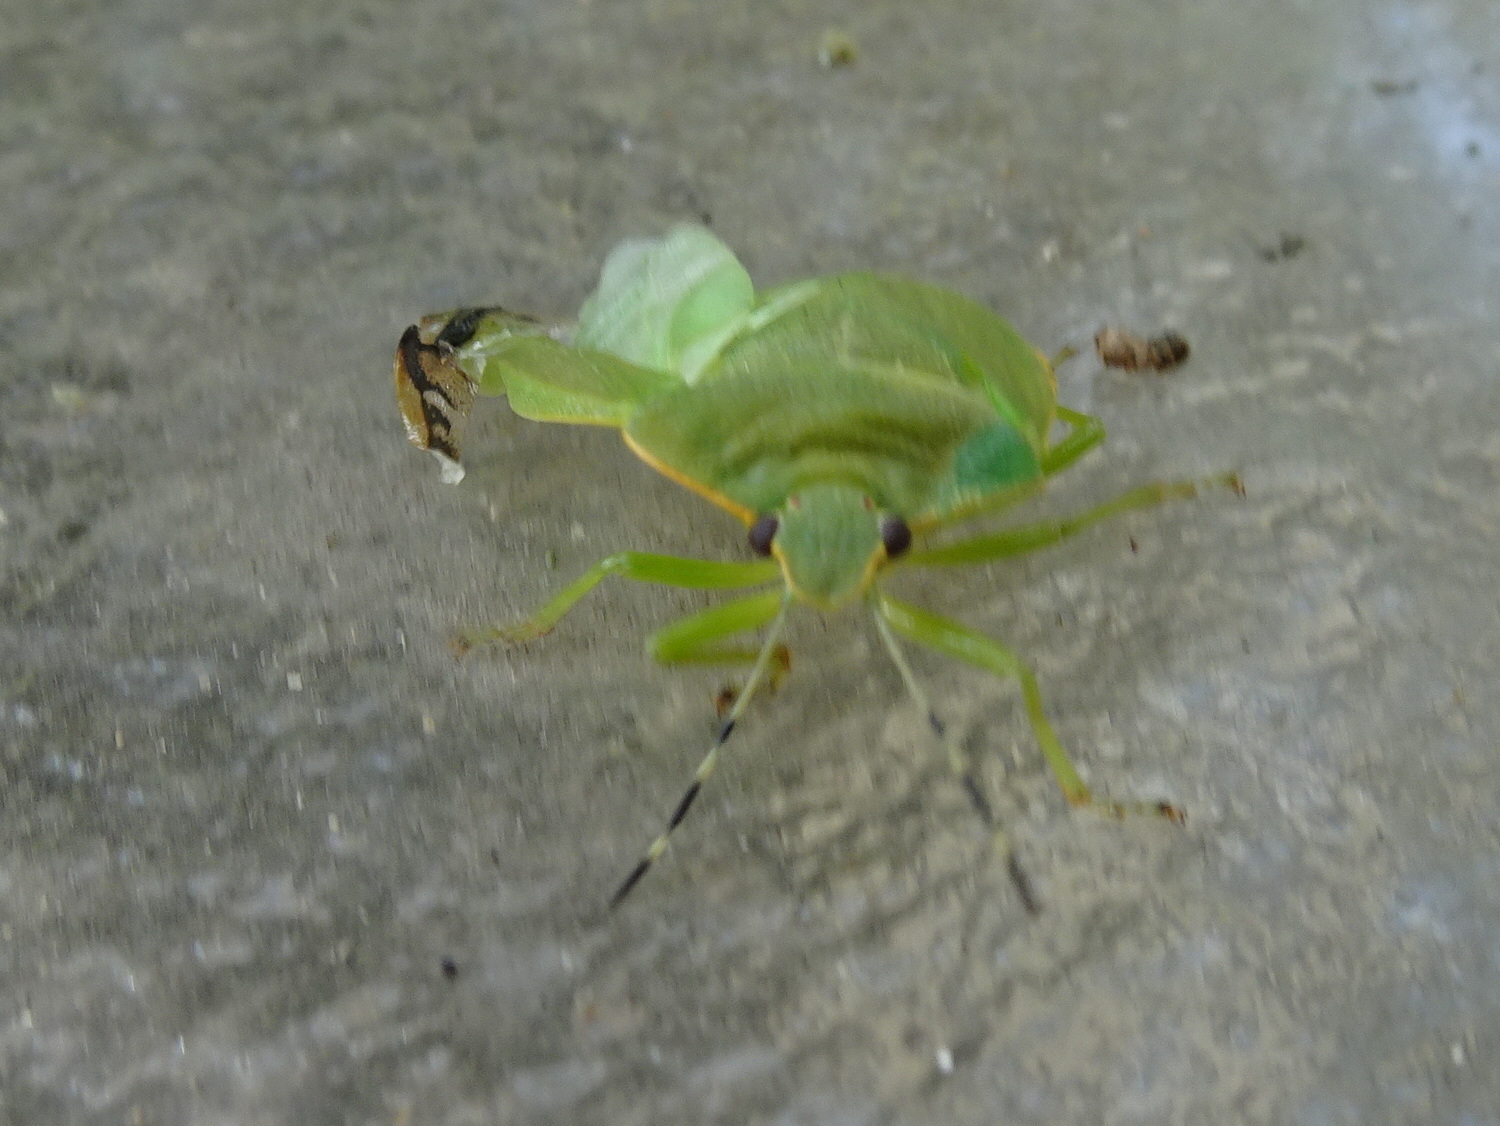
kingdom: Animalia
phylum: Arthropoda
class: Insecta
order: Hemiptera
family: Pentatomidae
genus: Chinavia
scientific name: Chinavia hilaris
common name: Green stink bug
